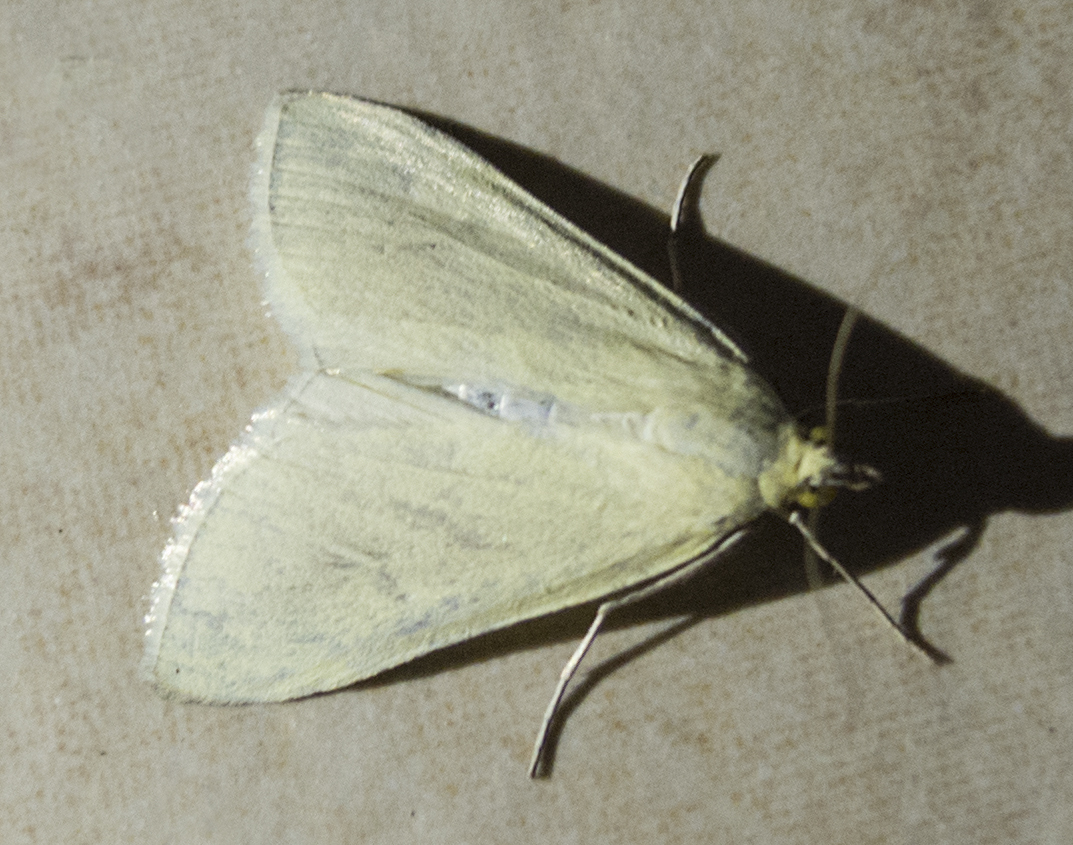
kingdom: Animalia
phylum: Arthropoda
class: Insecta
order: Lepidoptera
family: Crambidae
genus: Sitochroa
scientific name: Sitochroa palealis
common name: Greenish-yellow sitochroa moth
